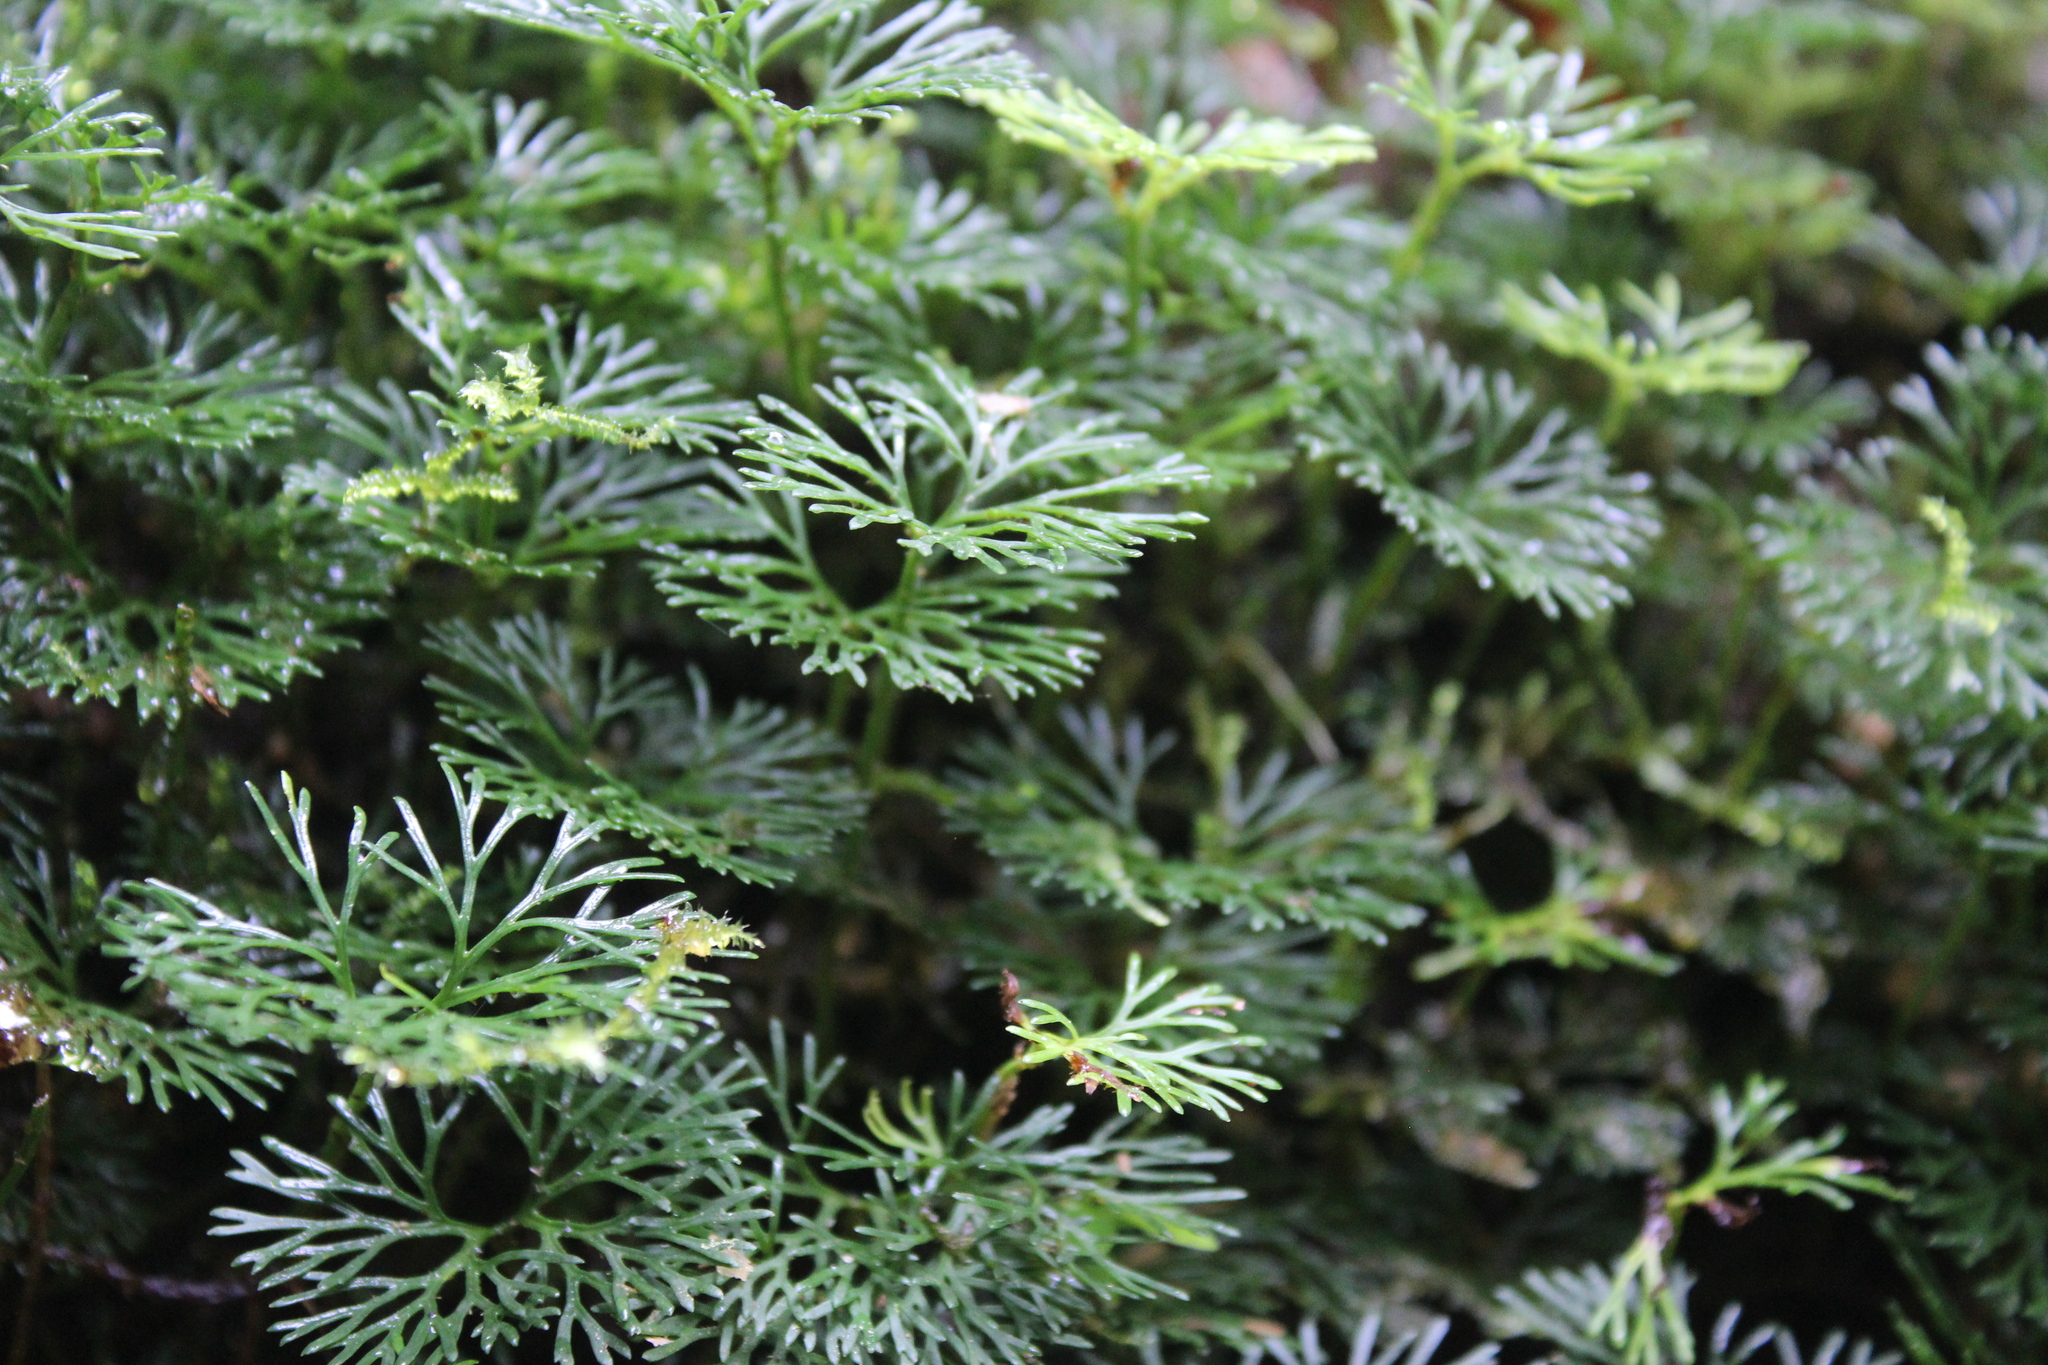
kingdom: Plantae
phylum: Tracheophyta
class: Polypodiopsida
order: Polypodiales
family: Dryopteridaceae
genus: Elaphoglossum
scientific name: Elaphoglossum peltatum
